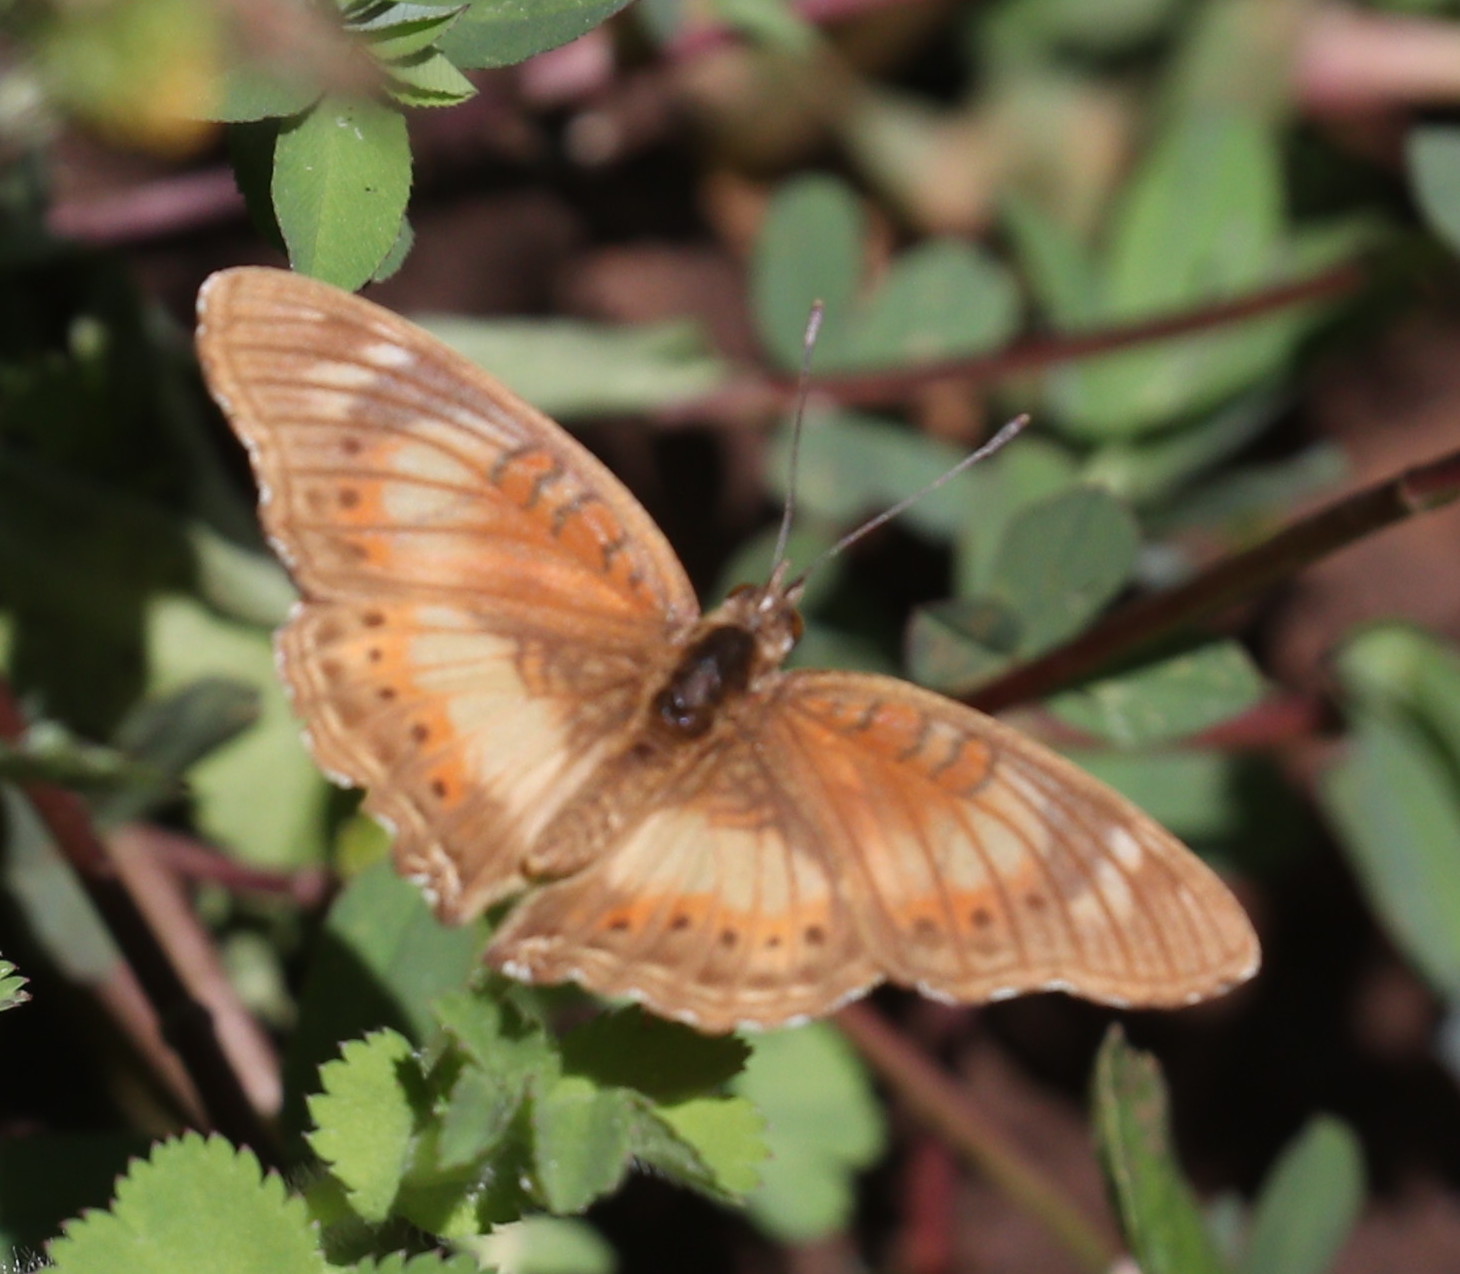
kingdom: Animalia
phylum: Arthropoda
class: Insecta
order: Lepidoptera
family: Nymphalidae
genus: Junonia
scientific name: Junonia sophia
